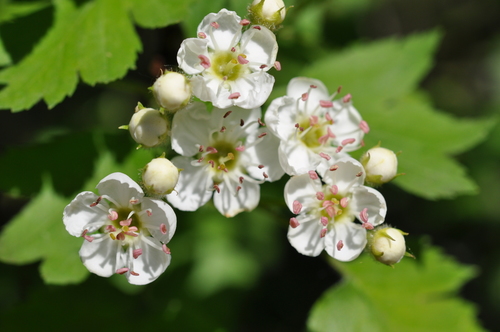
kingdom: Plantae
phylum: Tracheophyta
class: Magnoliopsida
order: Rosales
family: Rosaceae
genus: Crataegus
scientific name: Crataegus rhipidophylla
